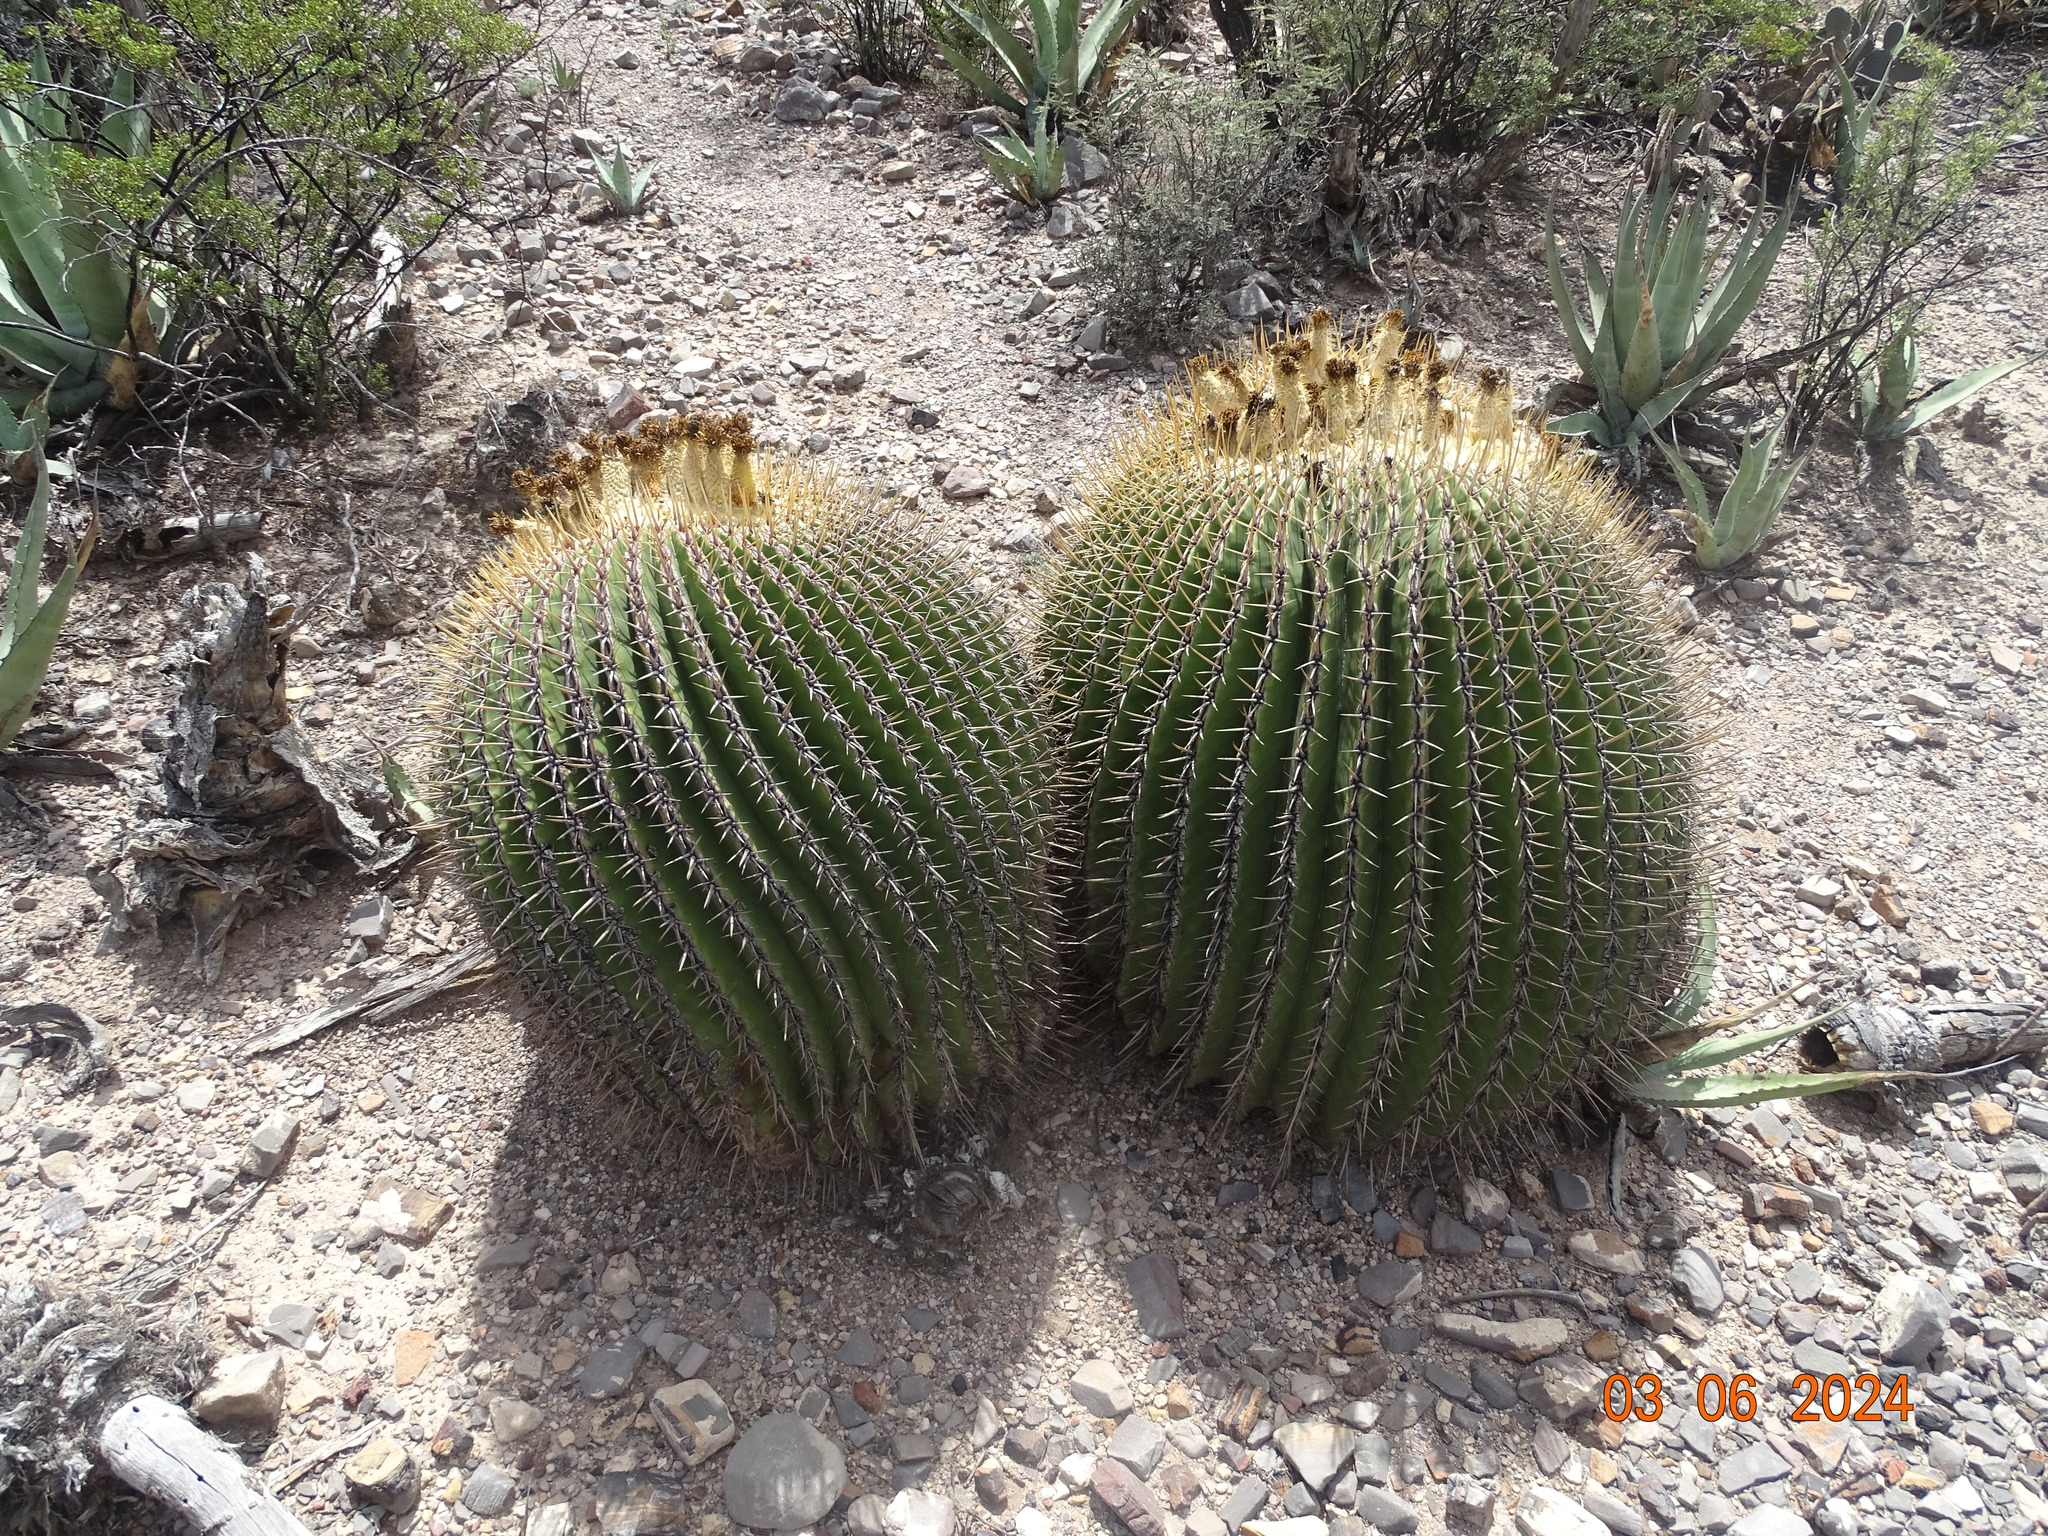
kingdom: Plantae
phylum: Tracheophyta
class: Magnoliopsida
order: Caryophyllales
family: Cactaceae
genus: Echinocactus
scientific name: Echinocactus platyacanthus
